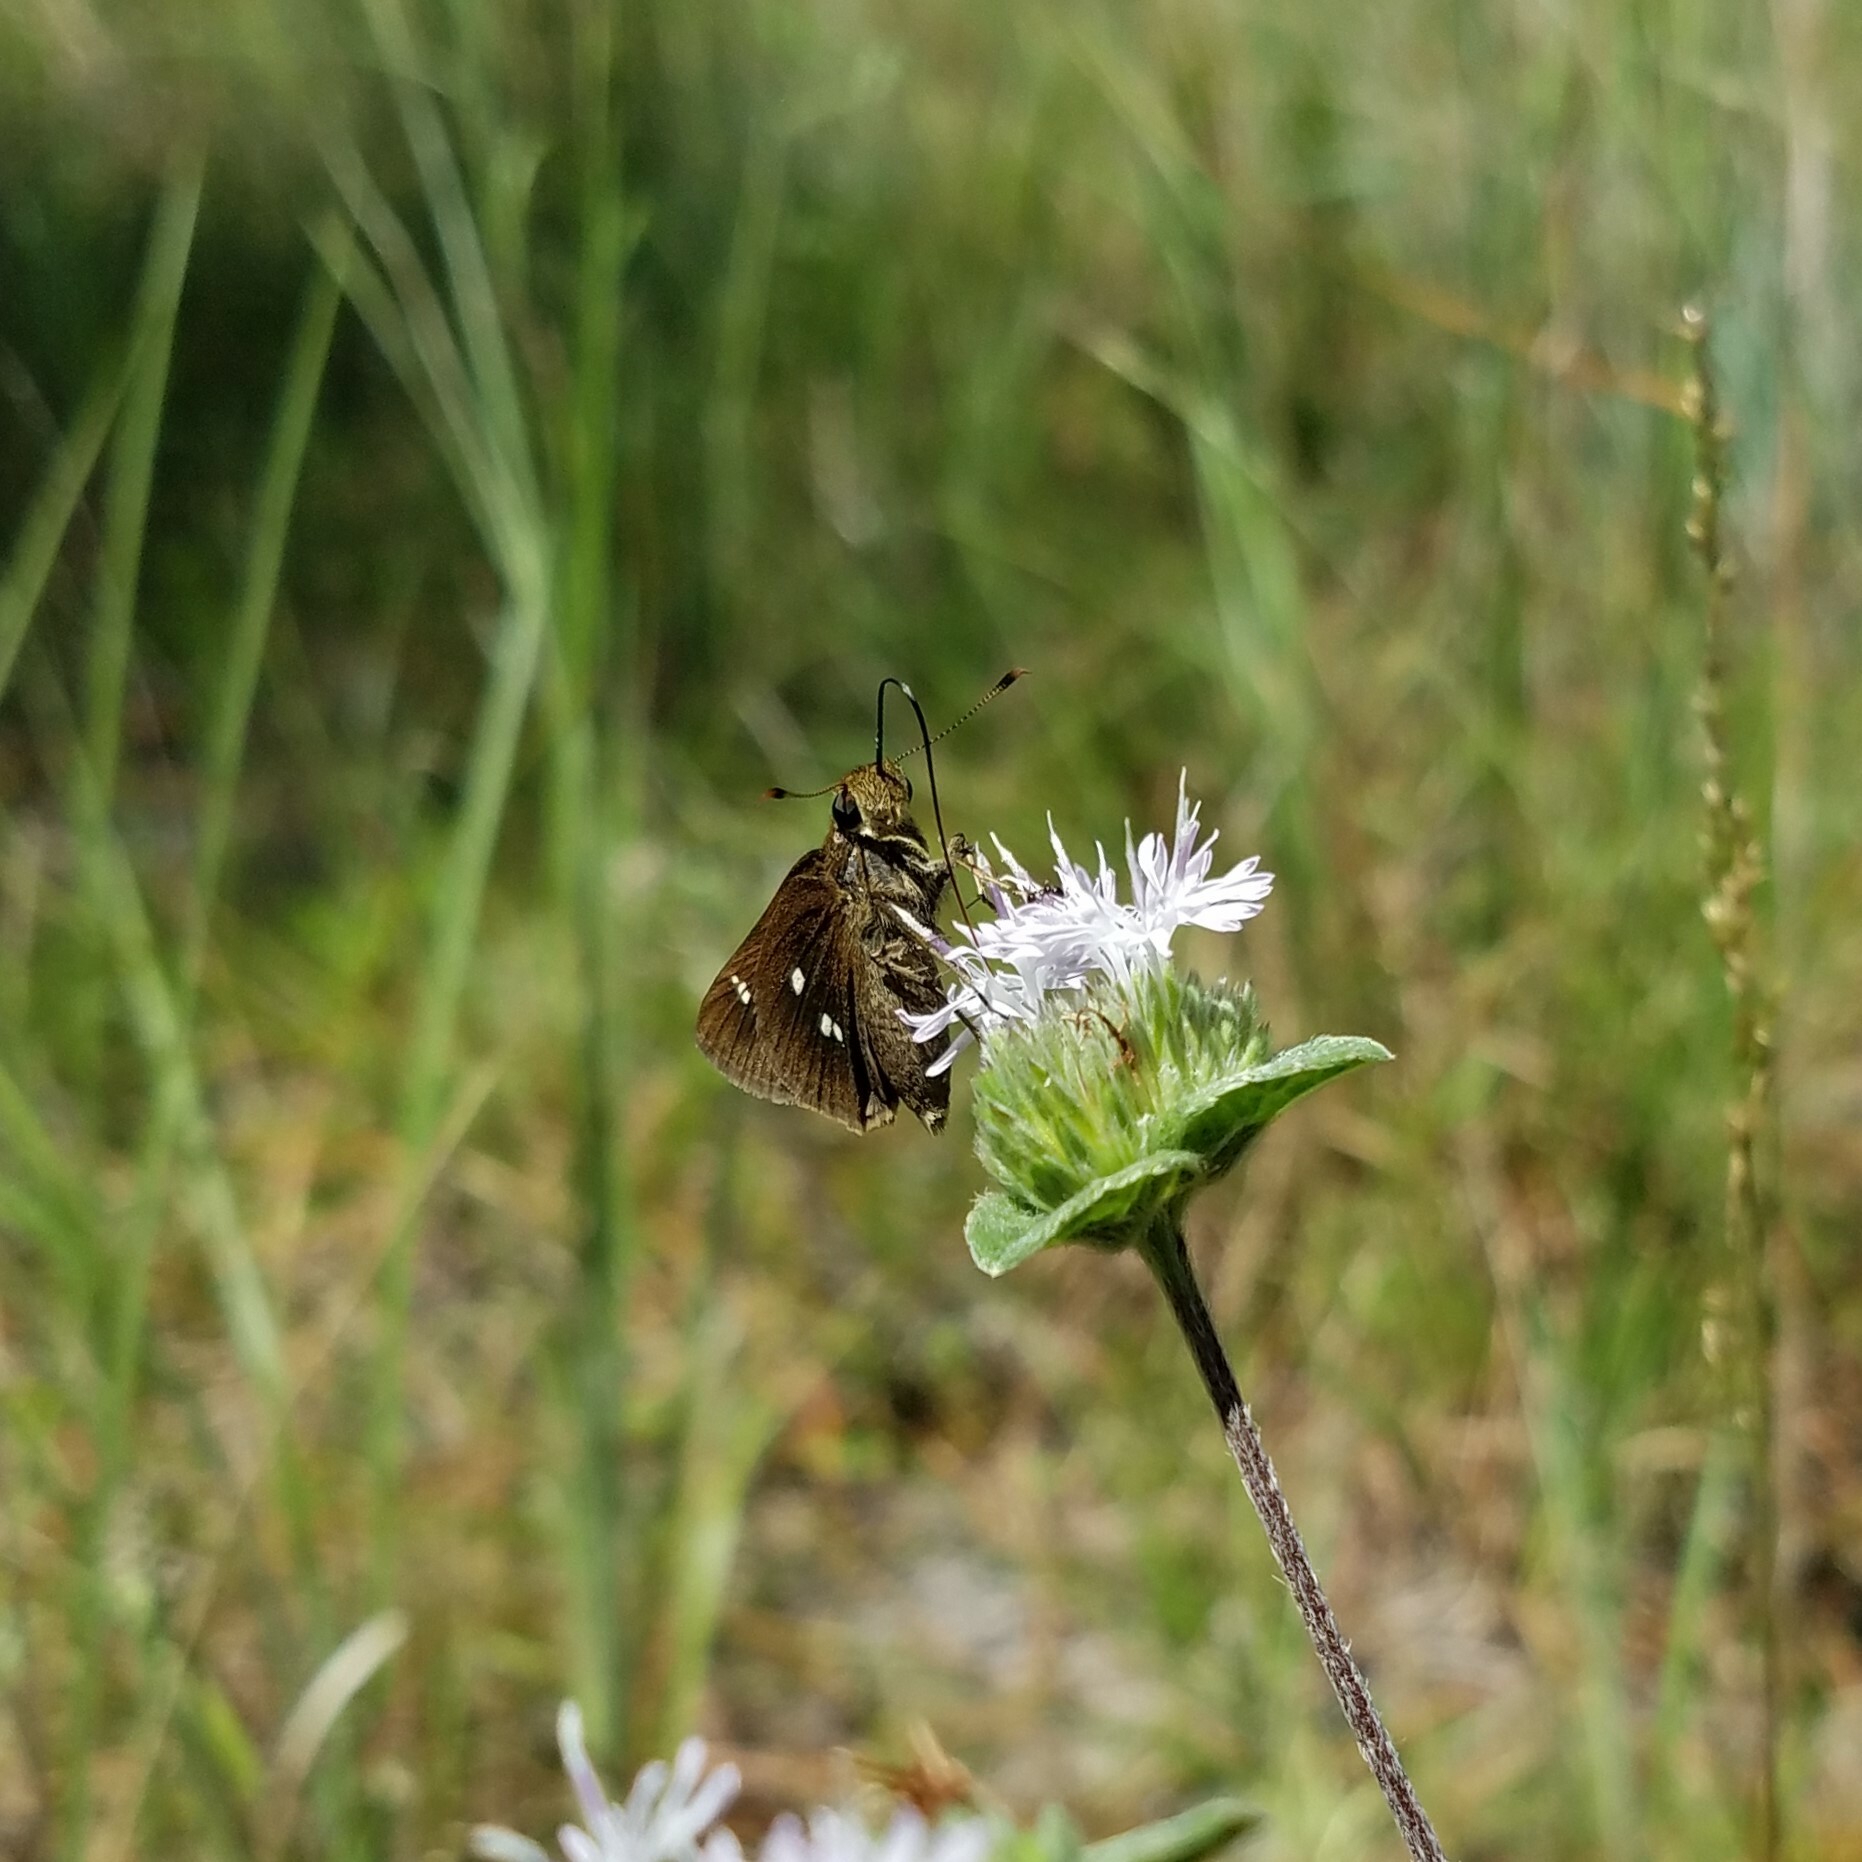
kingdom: Animalia
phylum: Arthropoda
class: Insecta
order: Lepidoptera
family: Hesperiidae
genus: Oligoria
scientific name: Oligoria maculata
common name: Twin-spot skipper
